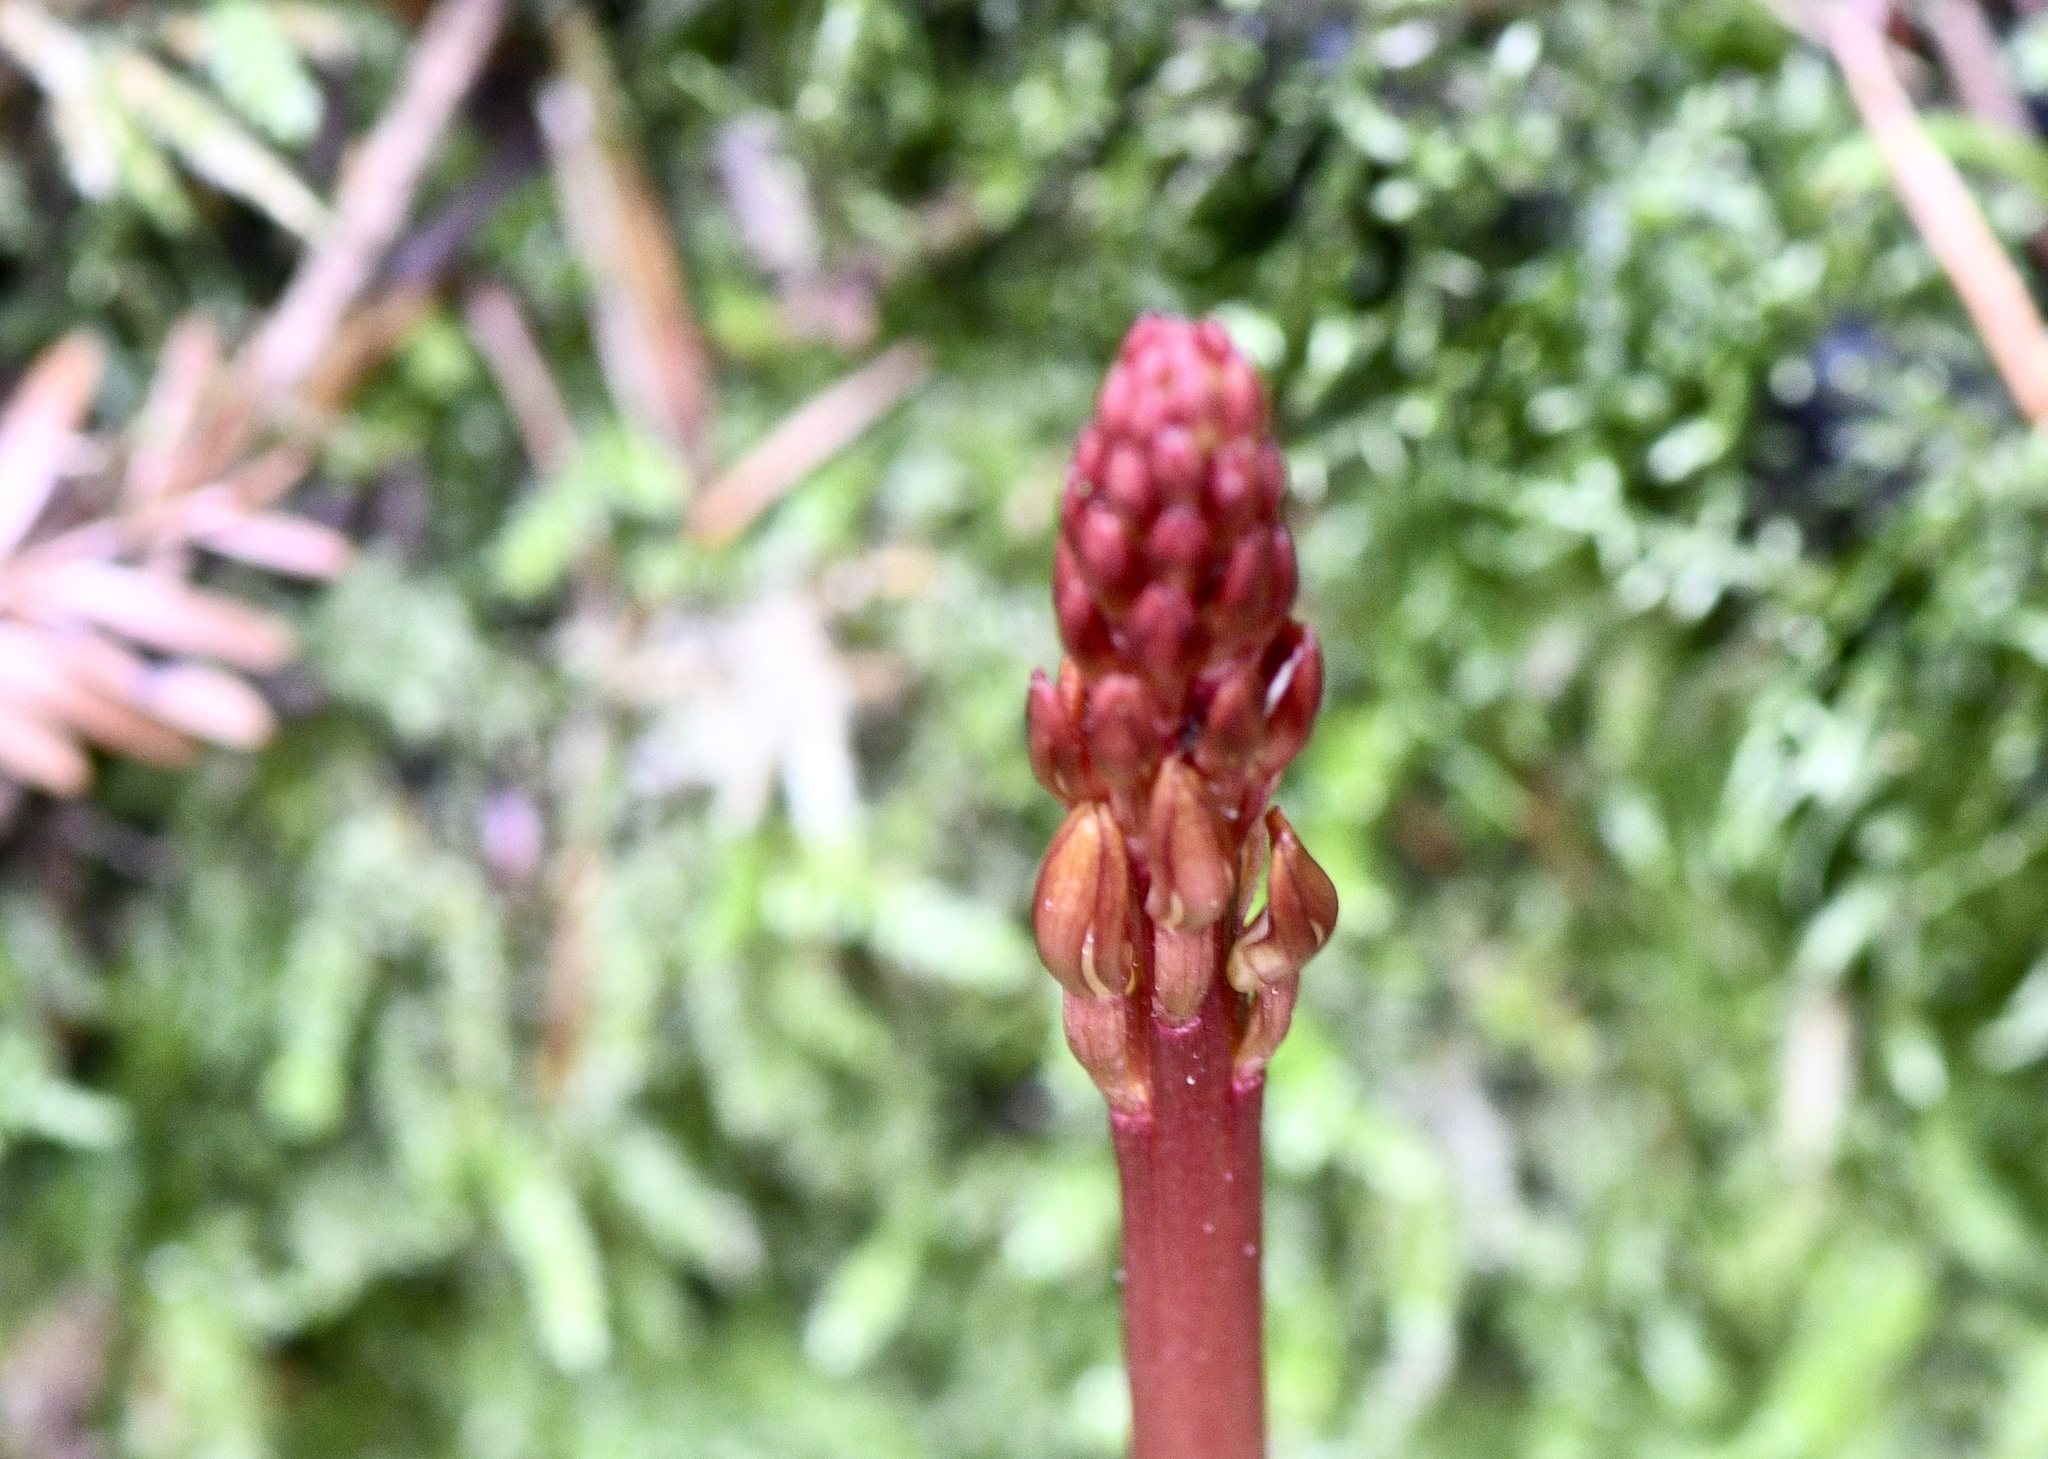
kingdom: Plantae
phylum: Tracheophyta
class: Liliopsida
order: Asparagales
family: Orchidaceae
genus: Corallorhiza
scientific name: Corallorhiza maculata
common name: Spotted coralroot
